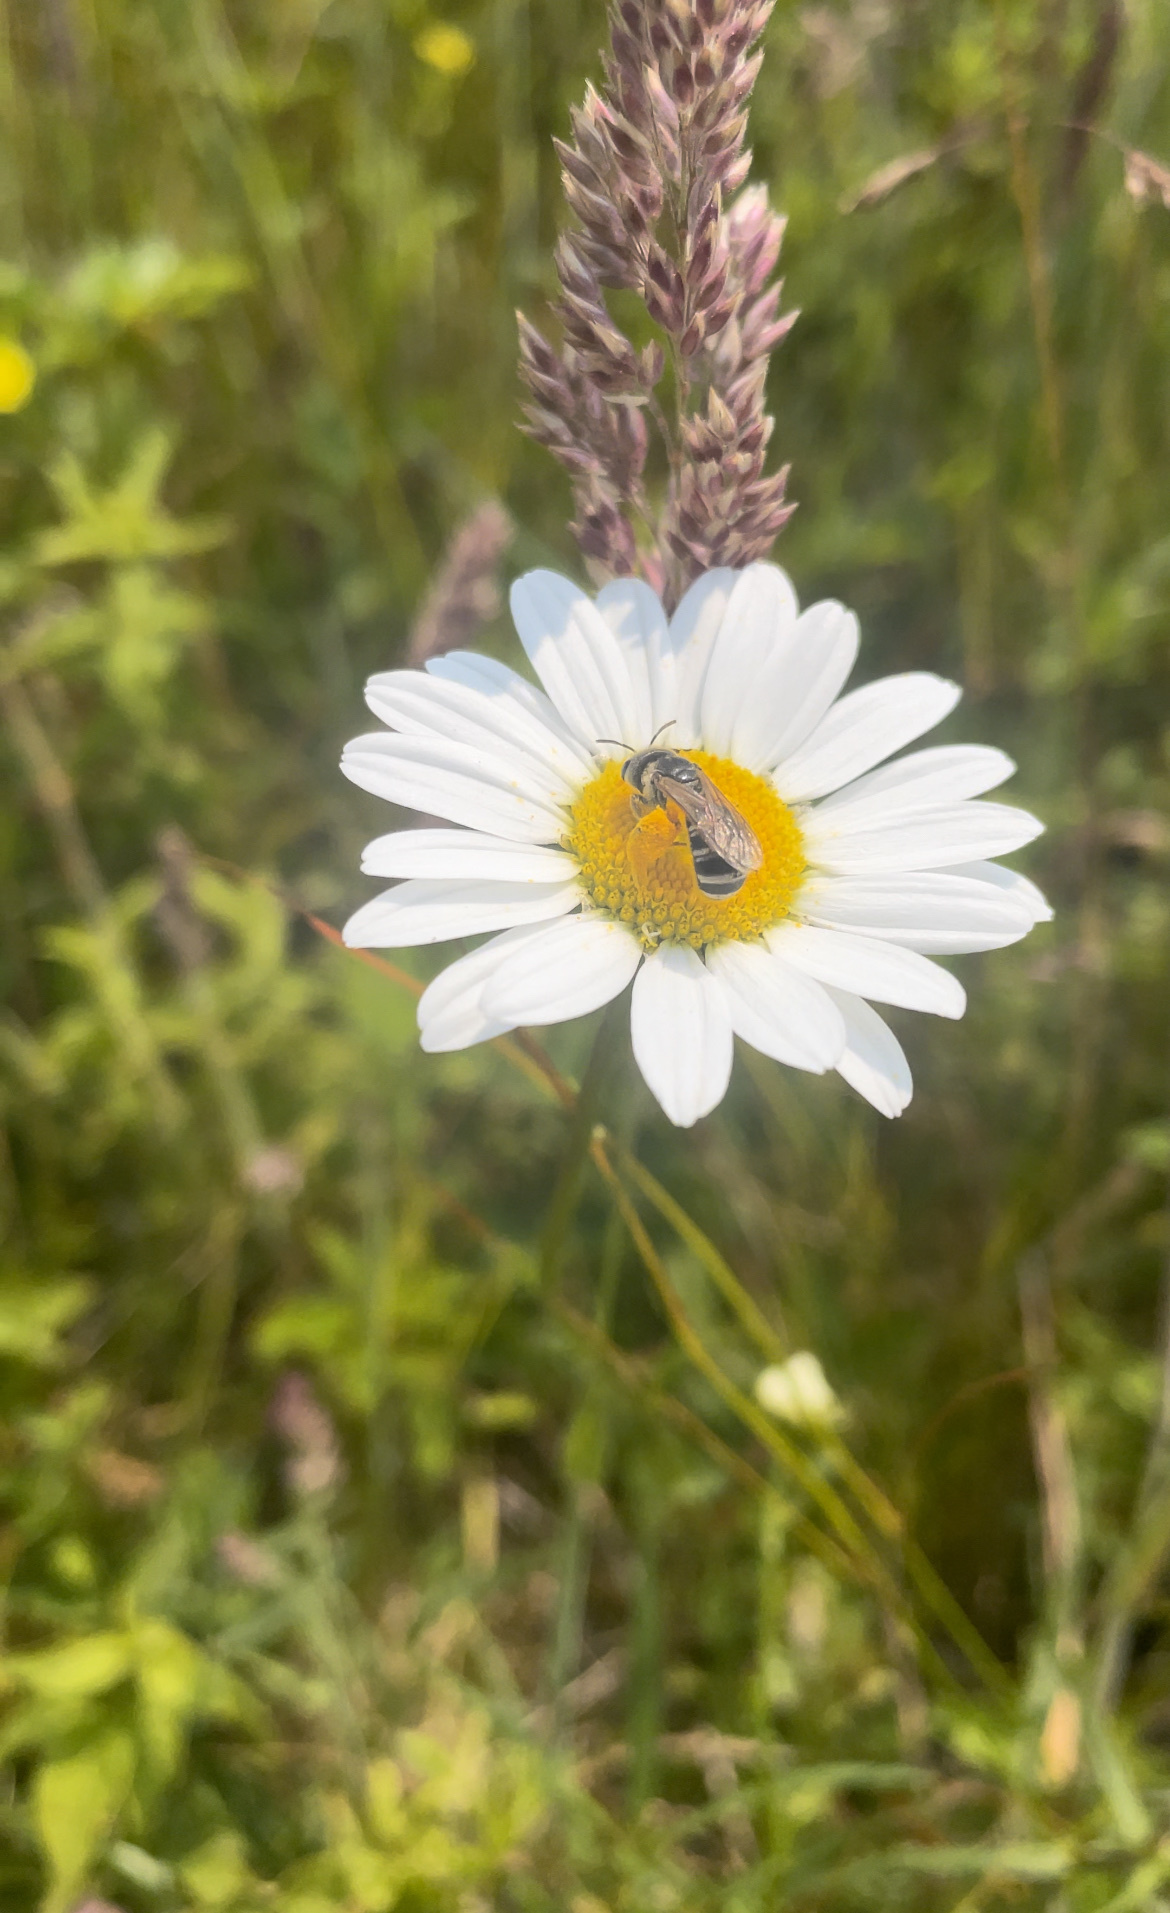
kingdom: Animalia
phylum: Arthropoda
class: Insecta
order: Hymenoptera
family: Halictidae
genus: Halictus
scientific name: Halictus ligatus
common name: Ligated furrow bee
